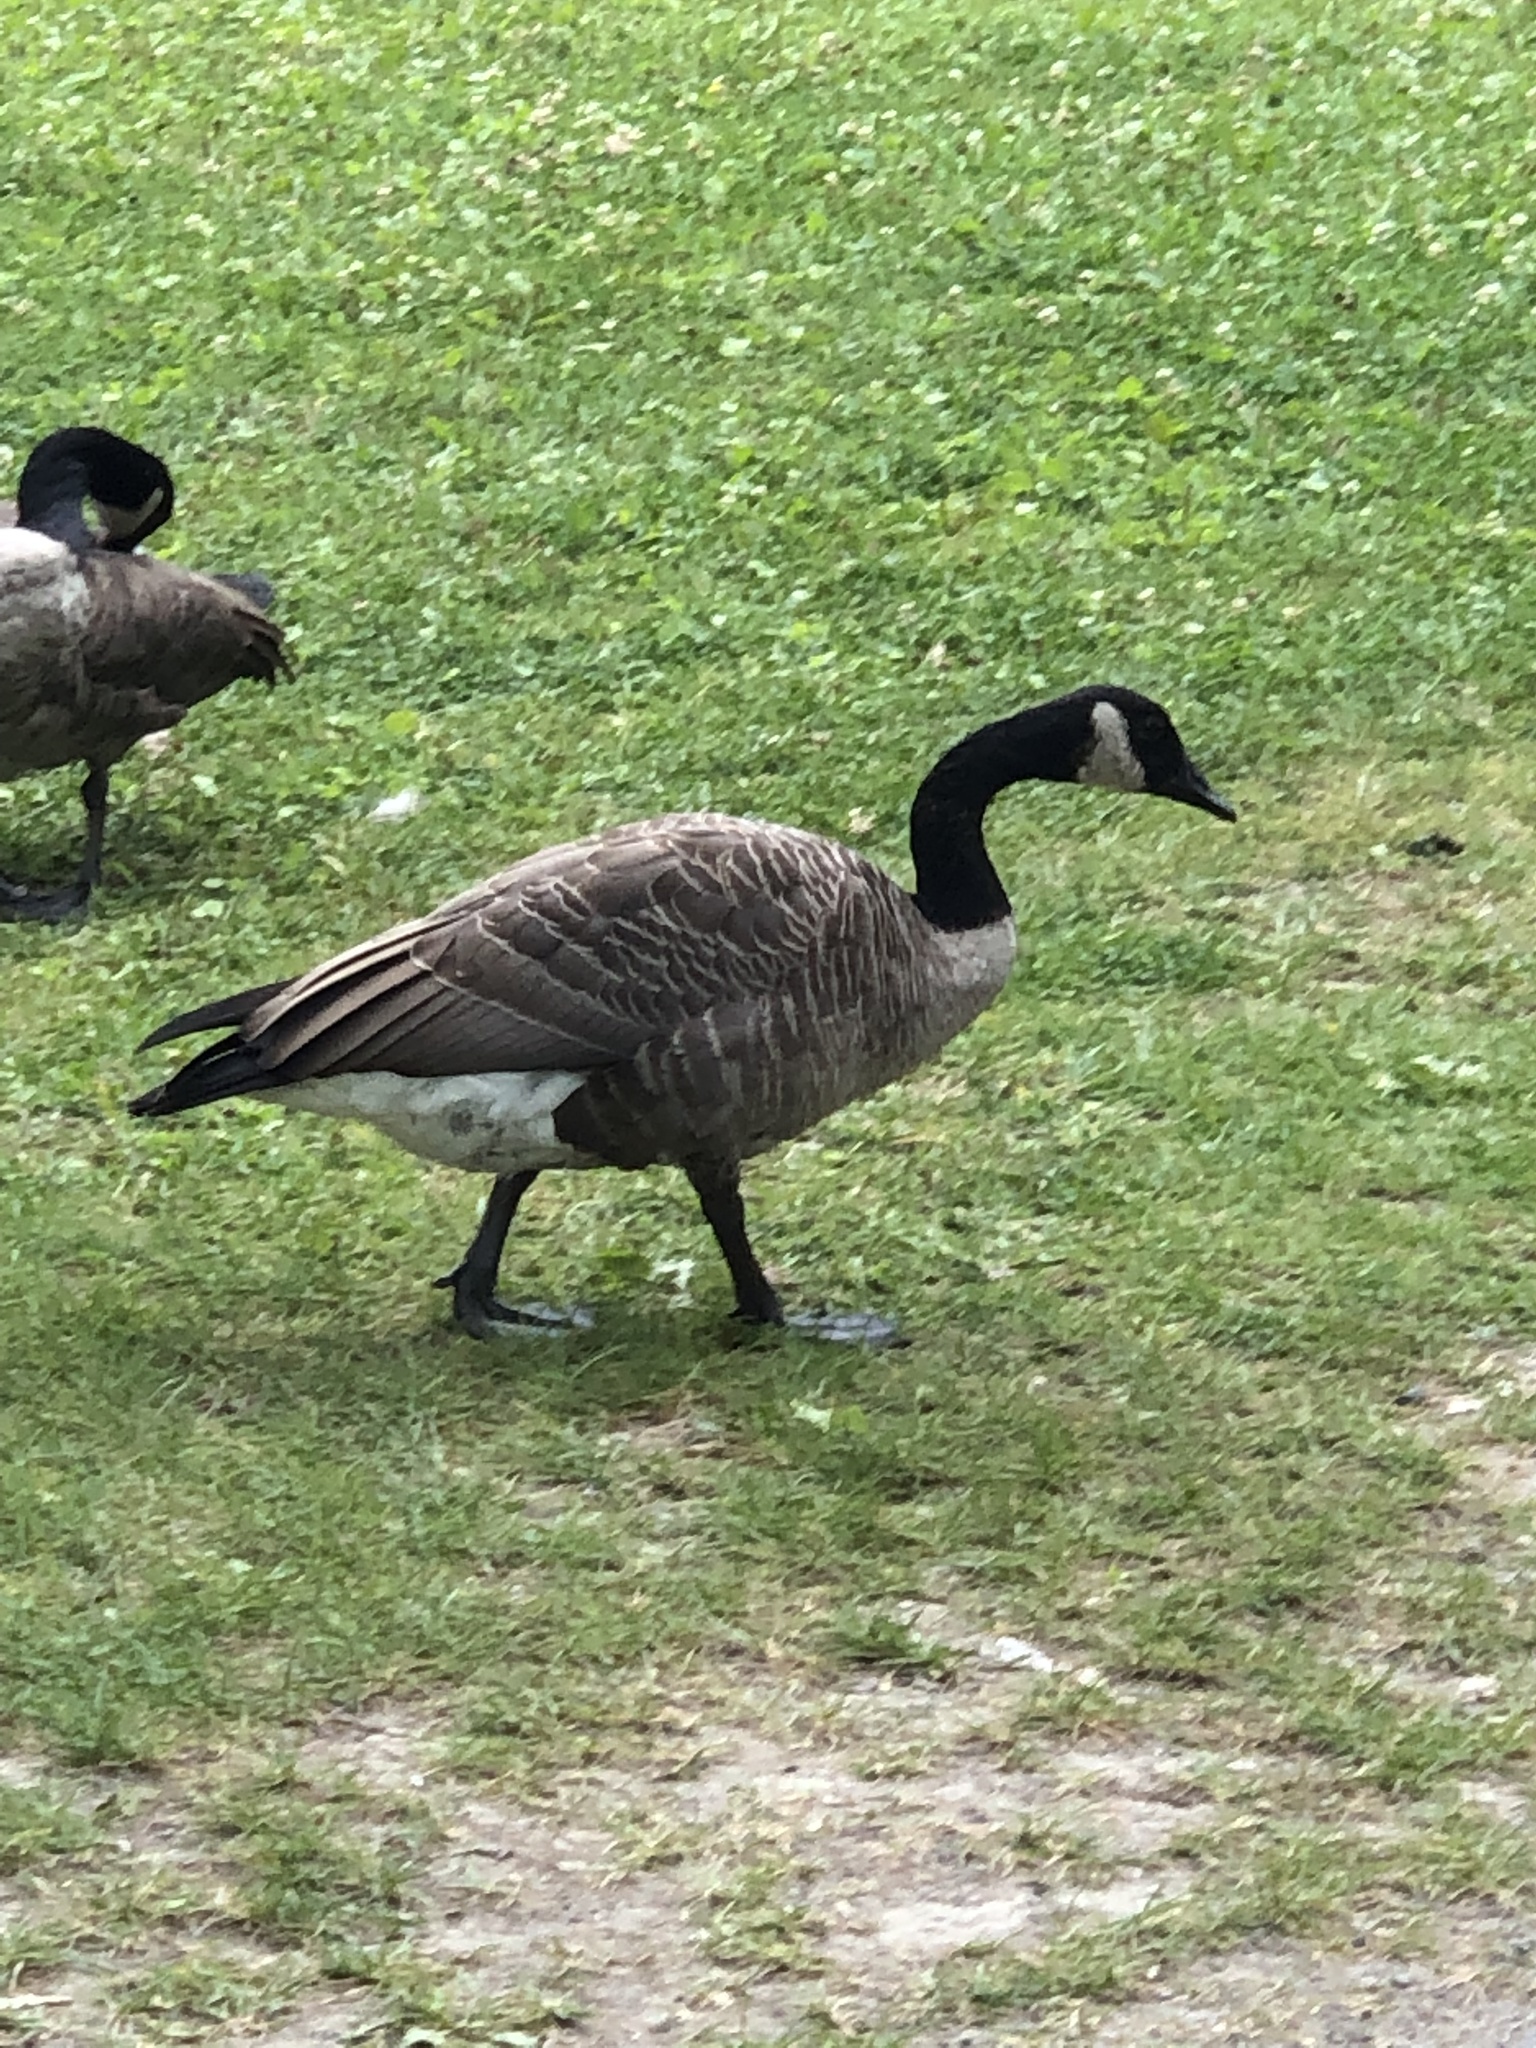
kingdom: Animalia
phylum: Chordata
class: Aves
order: Anseriformes
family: Anatidae
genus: Branta
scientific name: Branta canadensis
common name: Canada goose
